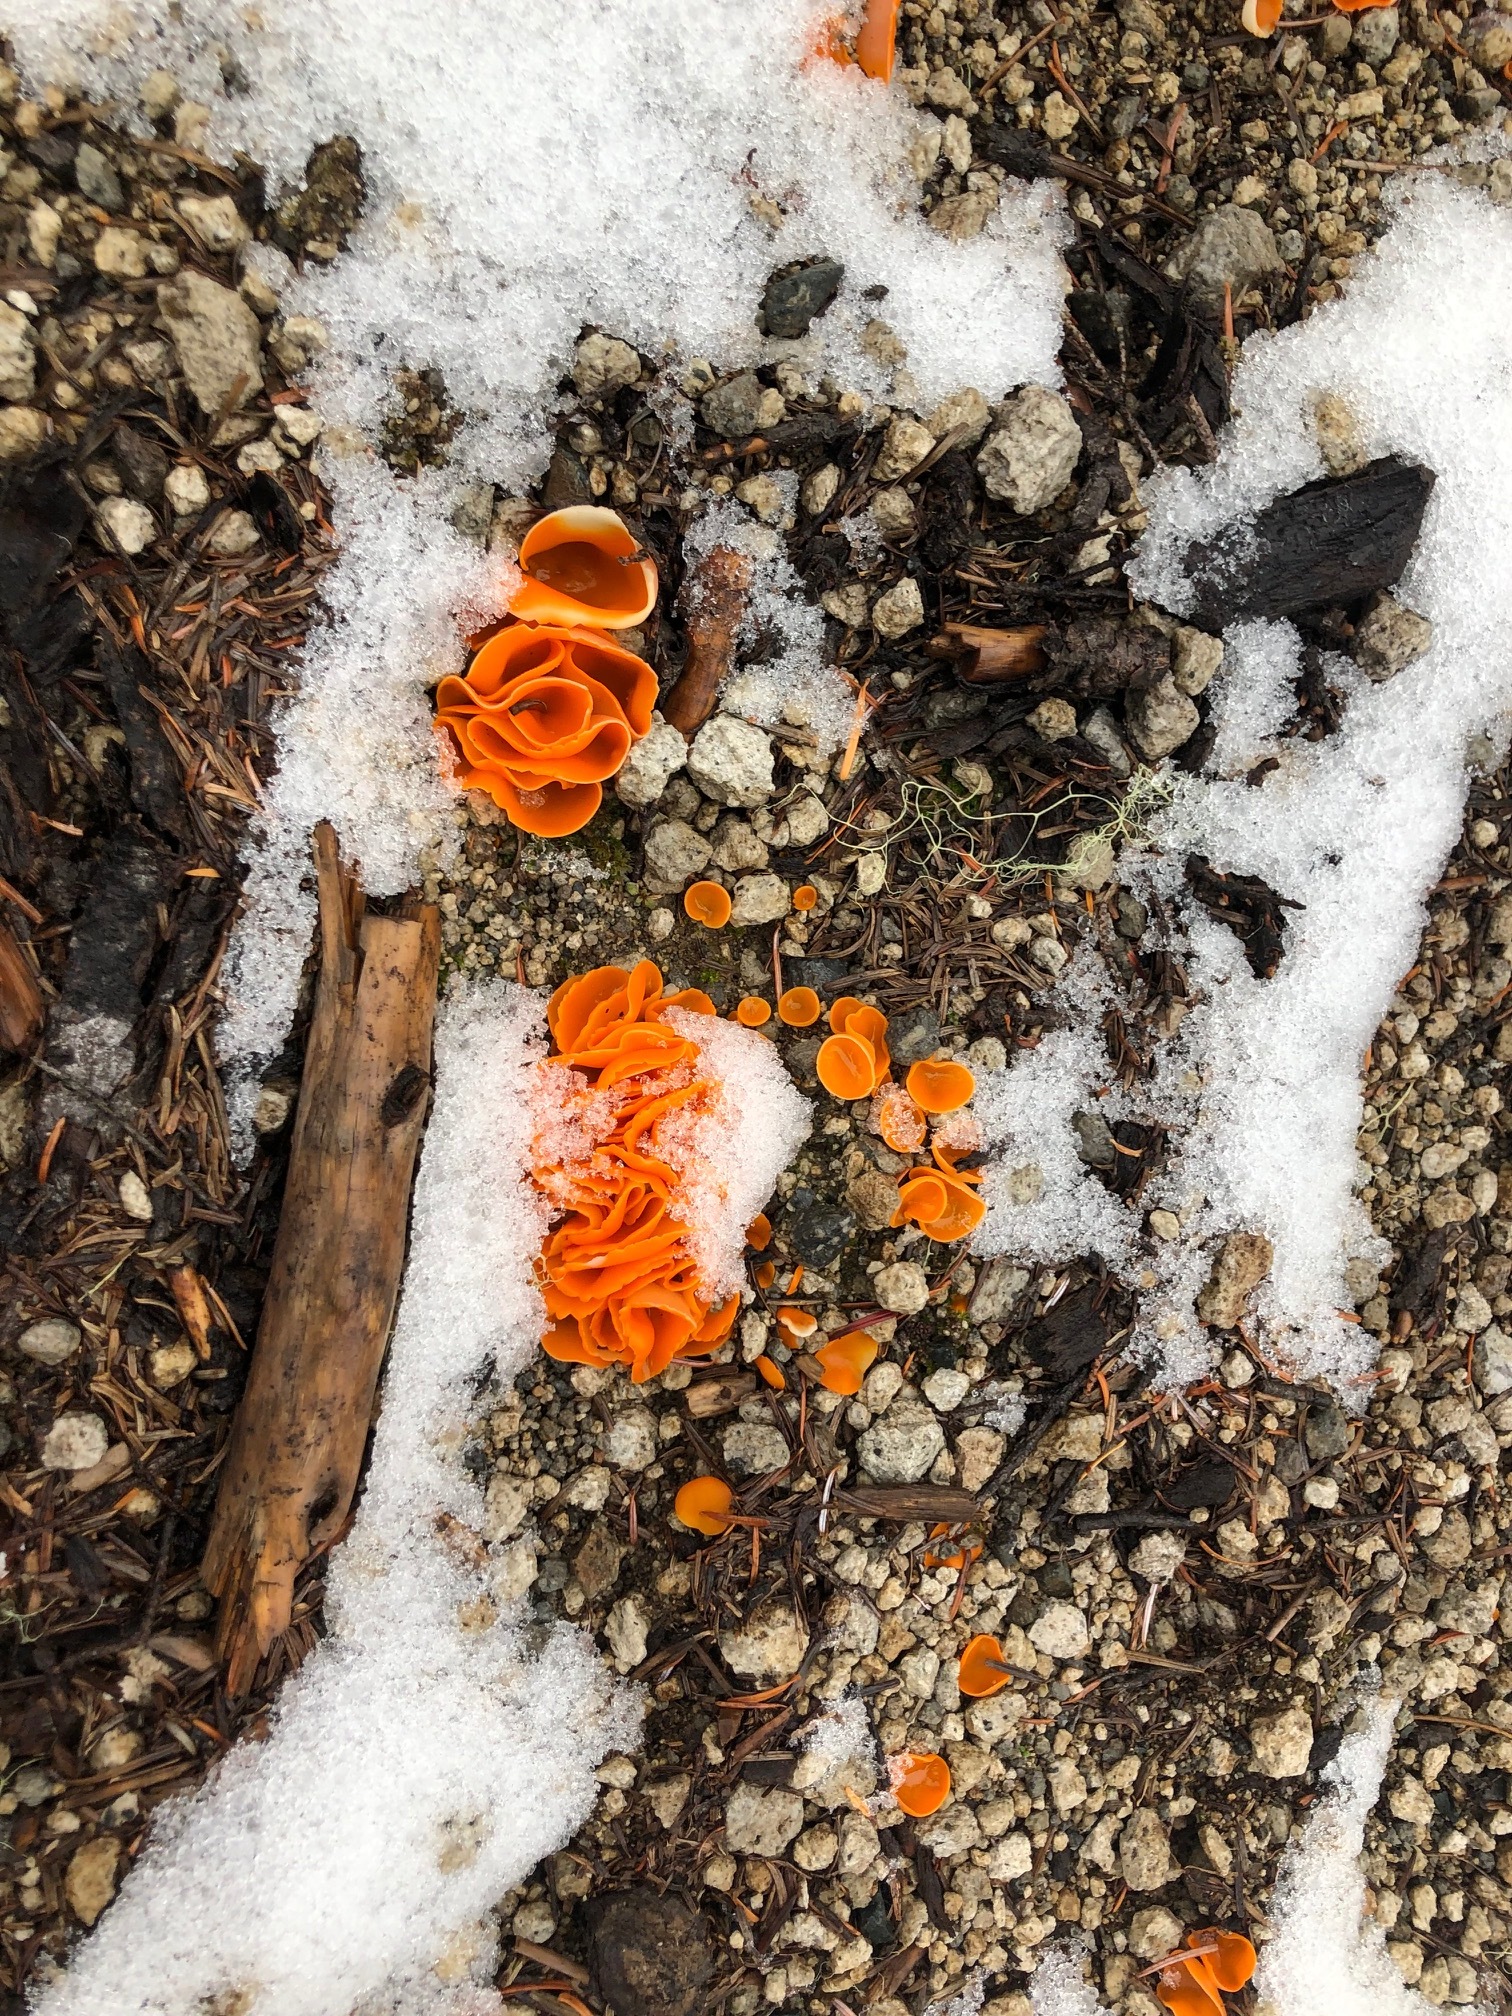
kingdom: Fungi
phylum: Ascomycota
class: Pezizomycetes
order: Pezizales
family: Pyronemataceae
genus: Aleuria
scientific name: Aleuria aurantia
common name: Orange peel fungus
